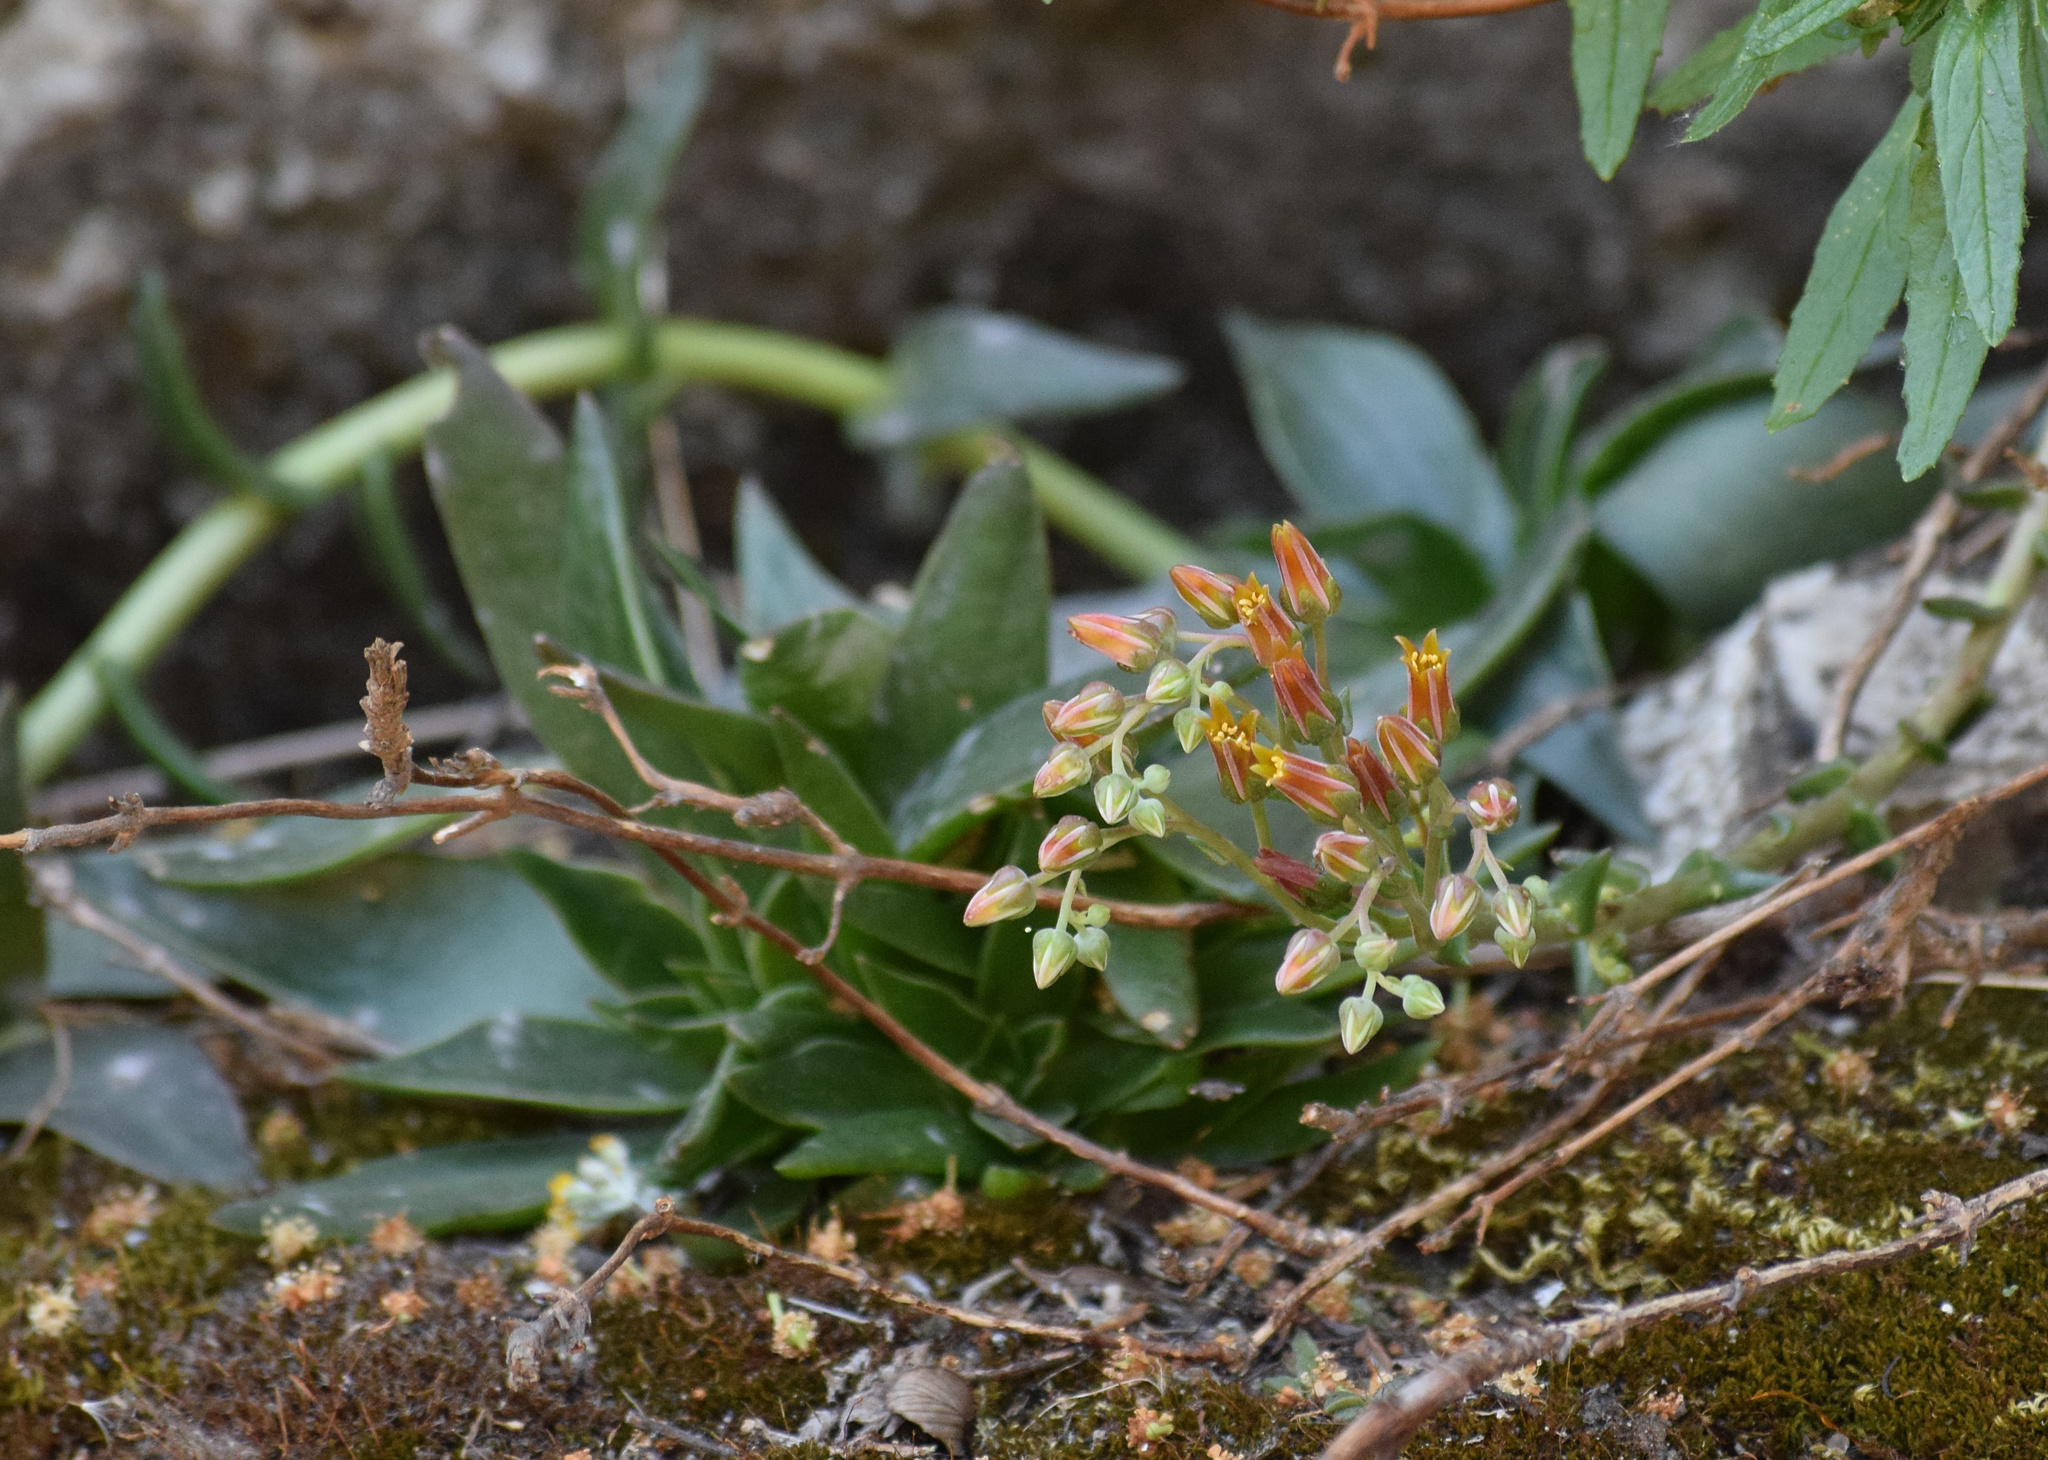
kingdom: Plantae
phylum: Tracheophyta
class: Magnoliopsida
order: Saxifragales
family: Crassulaceae
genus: Dudleya
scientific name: Dudleya lanceolata
